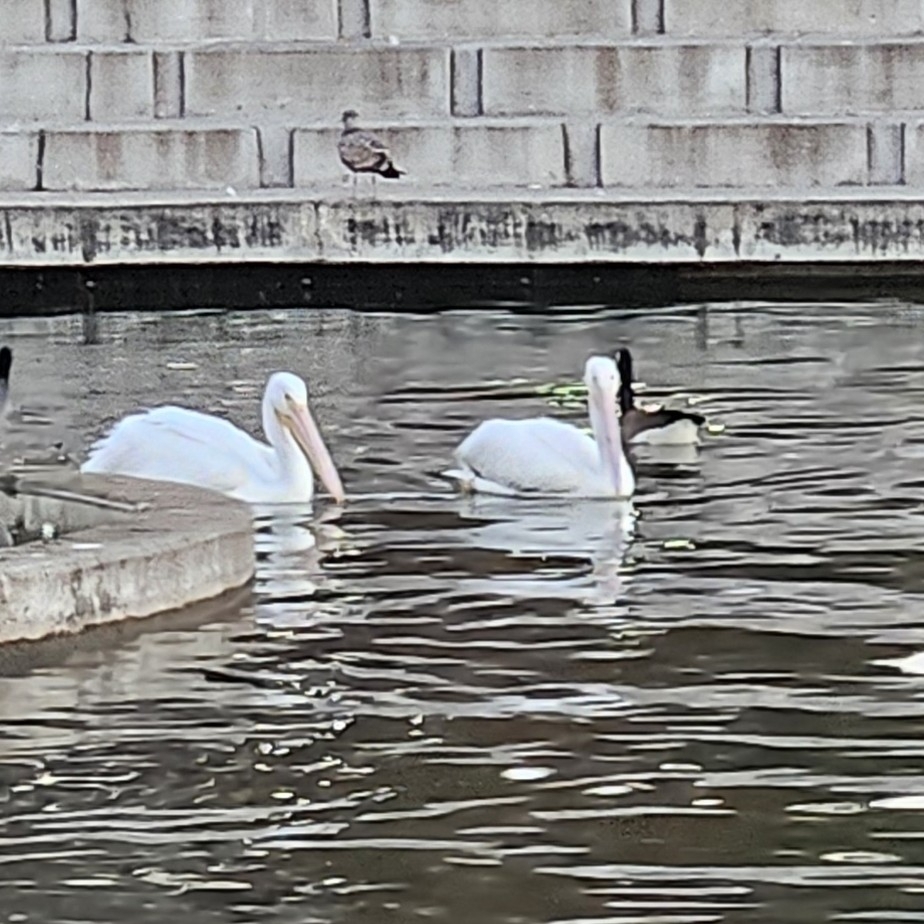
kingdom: Animalia
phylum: Chordata
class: Aves
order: Pelecaniformes
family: Pelecanidae
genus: Pelecanus
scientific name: Pelecanus erythrorhynchos
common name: American white pelican
